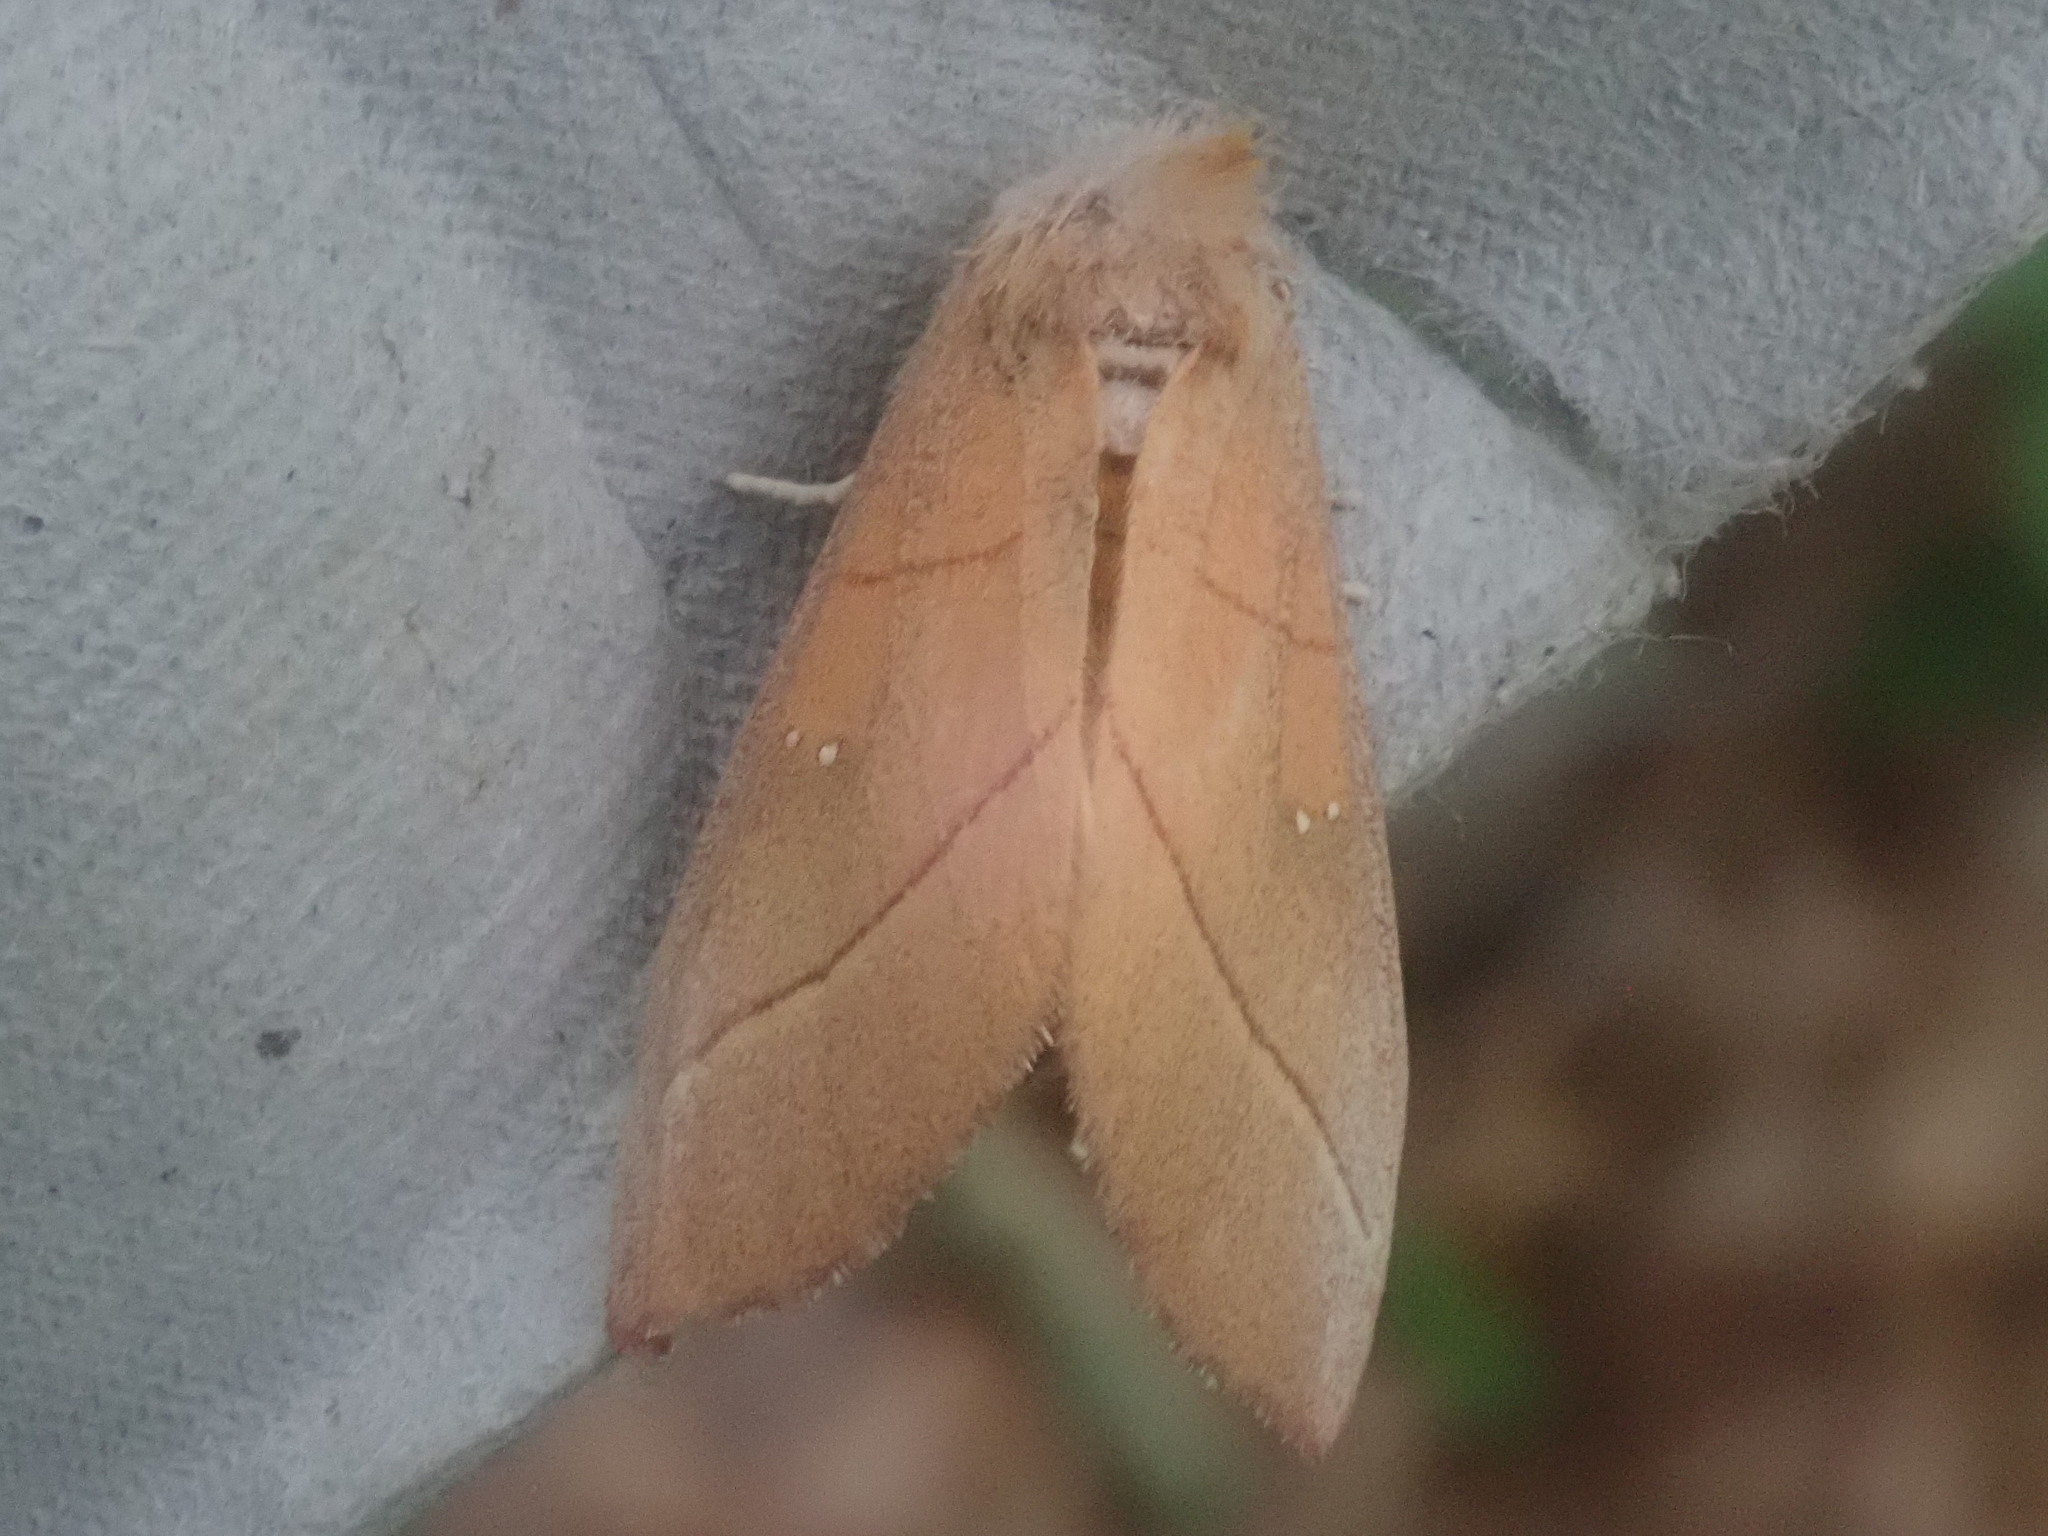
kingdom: Animalia
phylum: Arthropoda
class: Insecta
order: Lepidoptera
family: Notodontidae
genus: Nadata
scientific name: Nadata gibbosa
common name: White-dotted prominent
